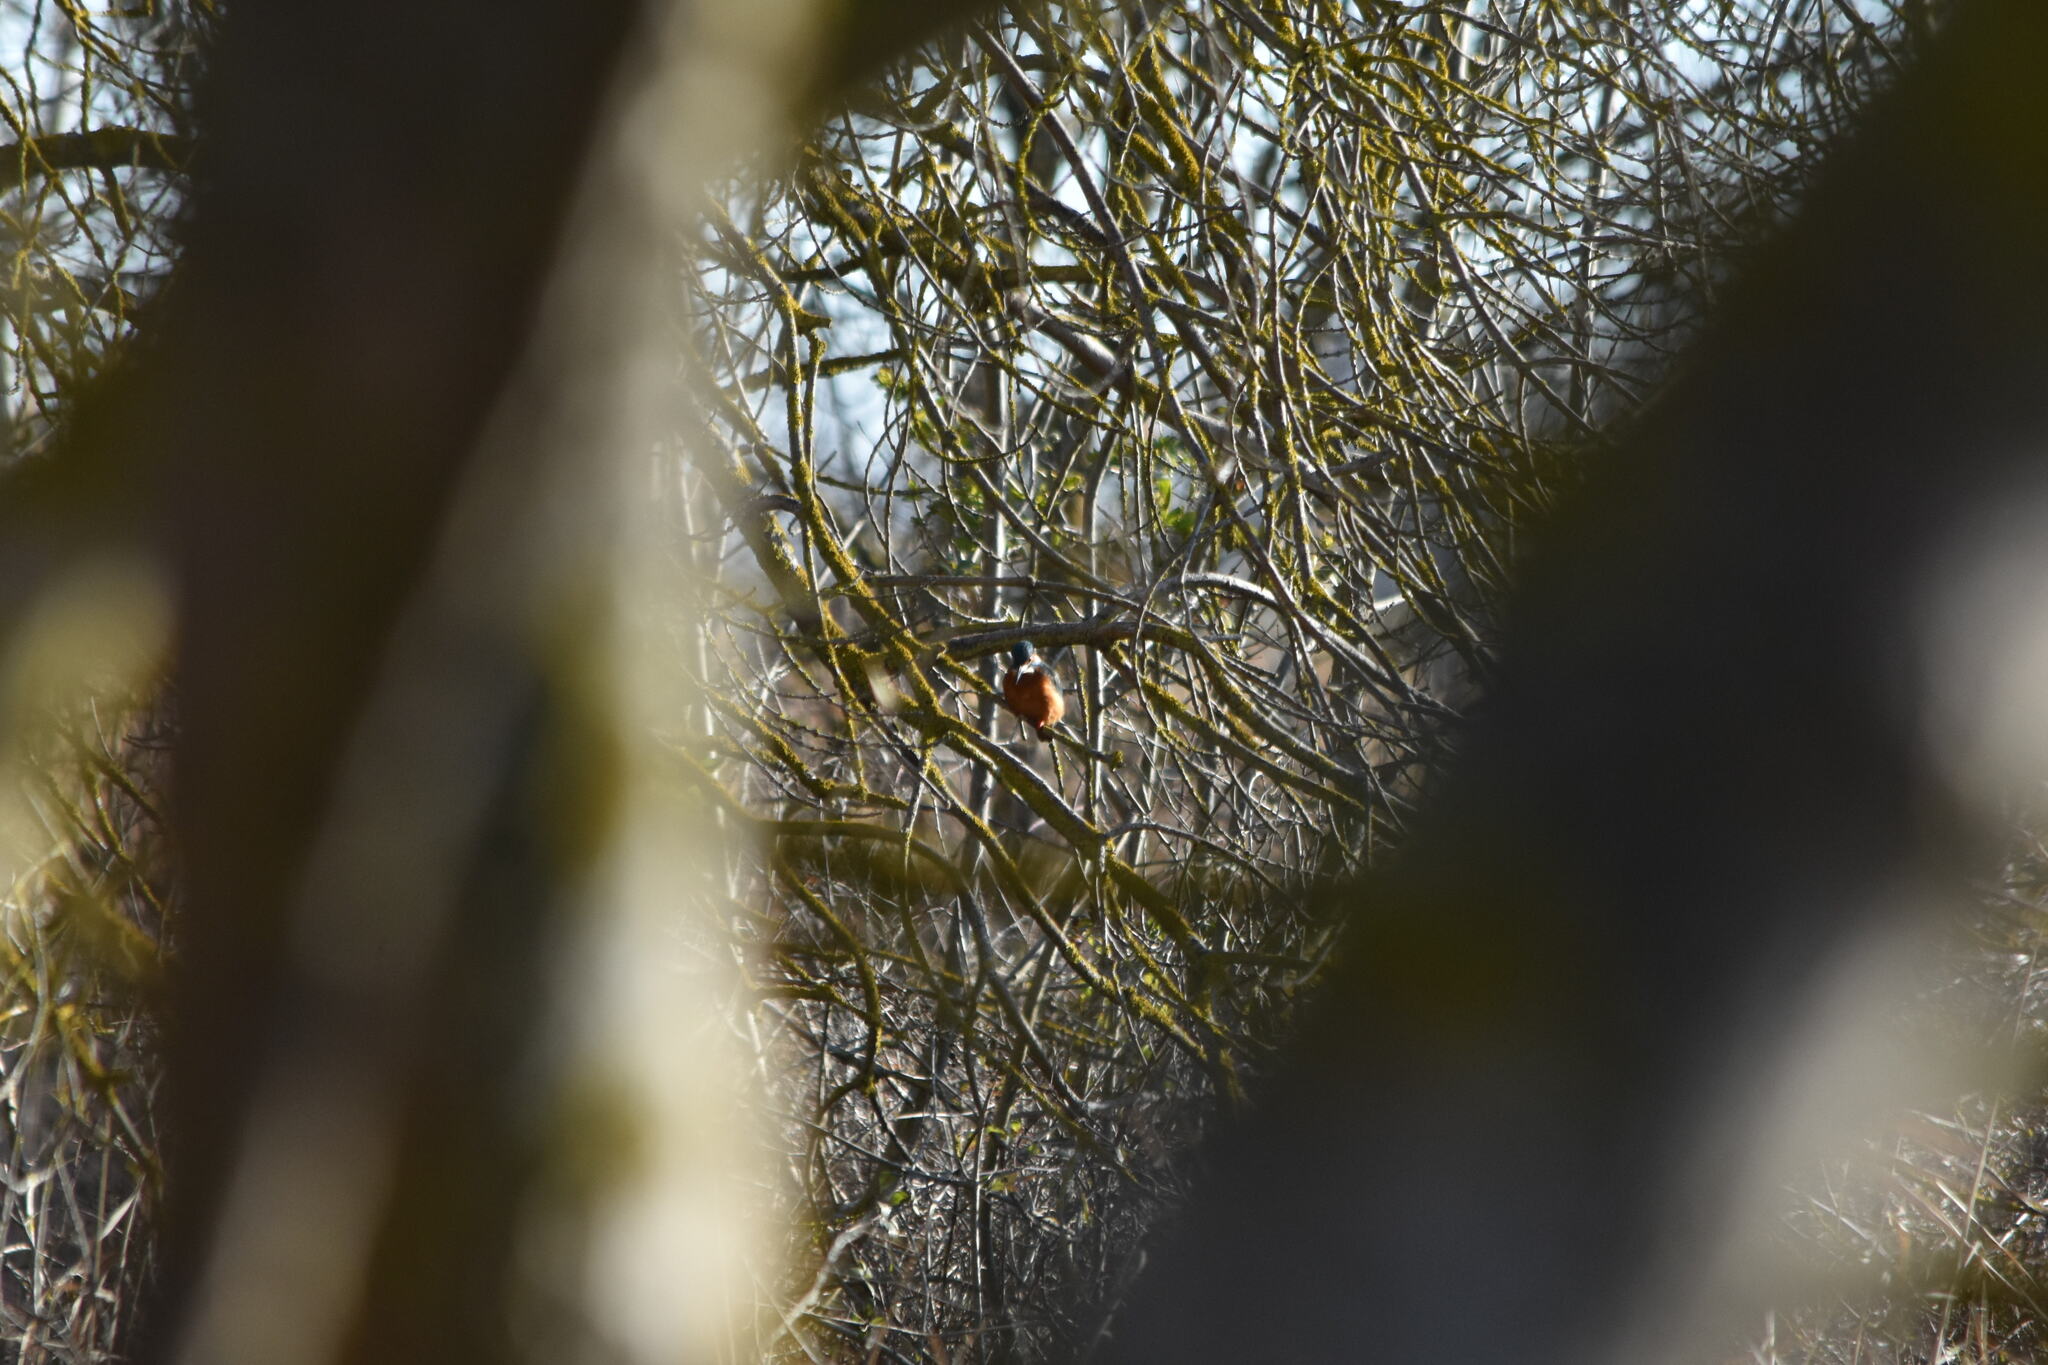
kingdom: Animalia
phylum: Chordata
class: Aves
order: Coraciiformes
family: Alcedinidae
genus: Alcedo
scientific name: Alcedo atthis
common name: Common kingfisher
